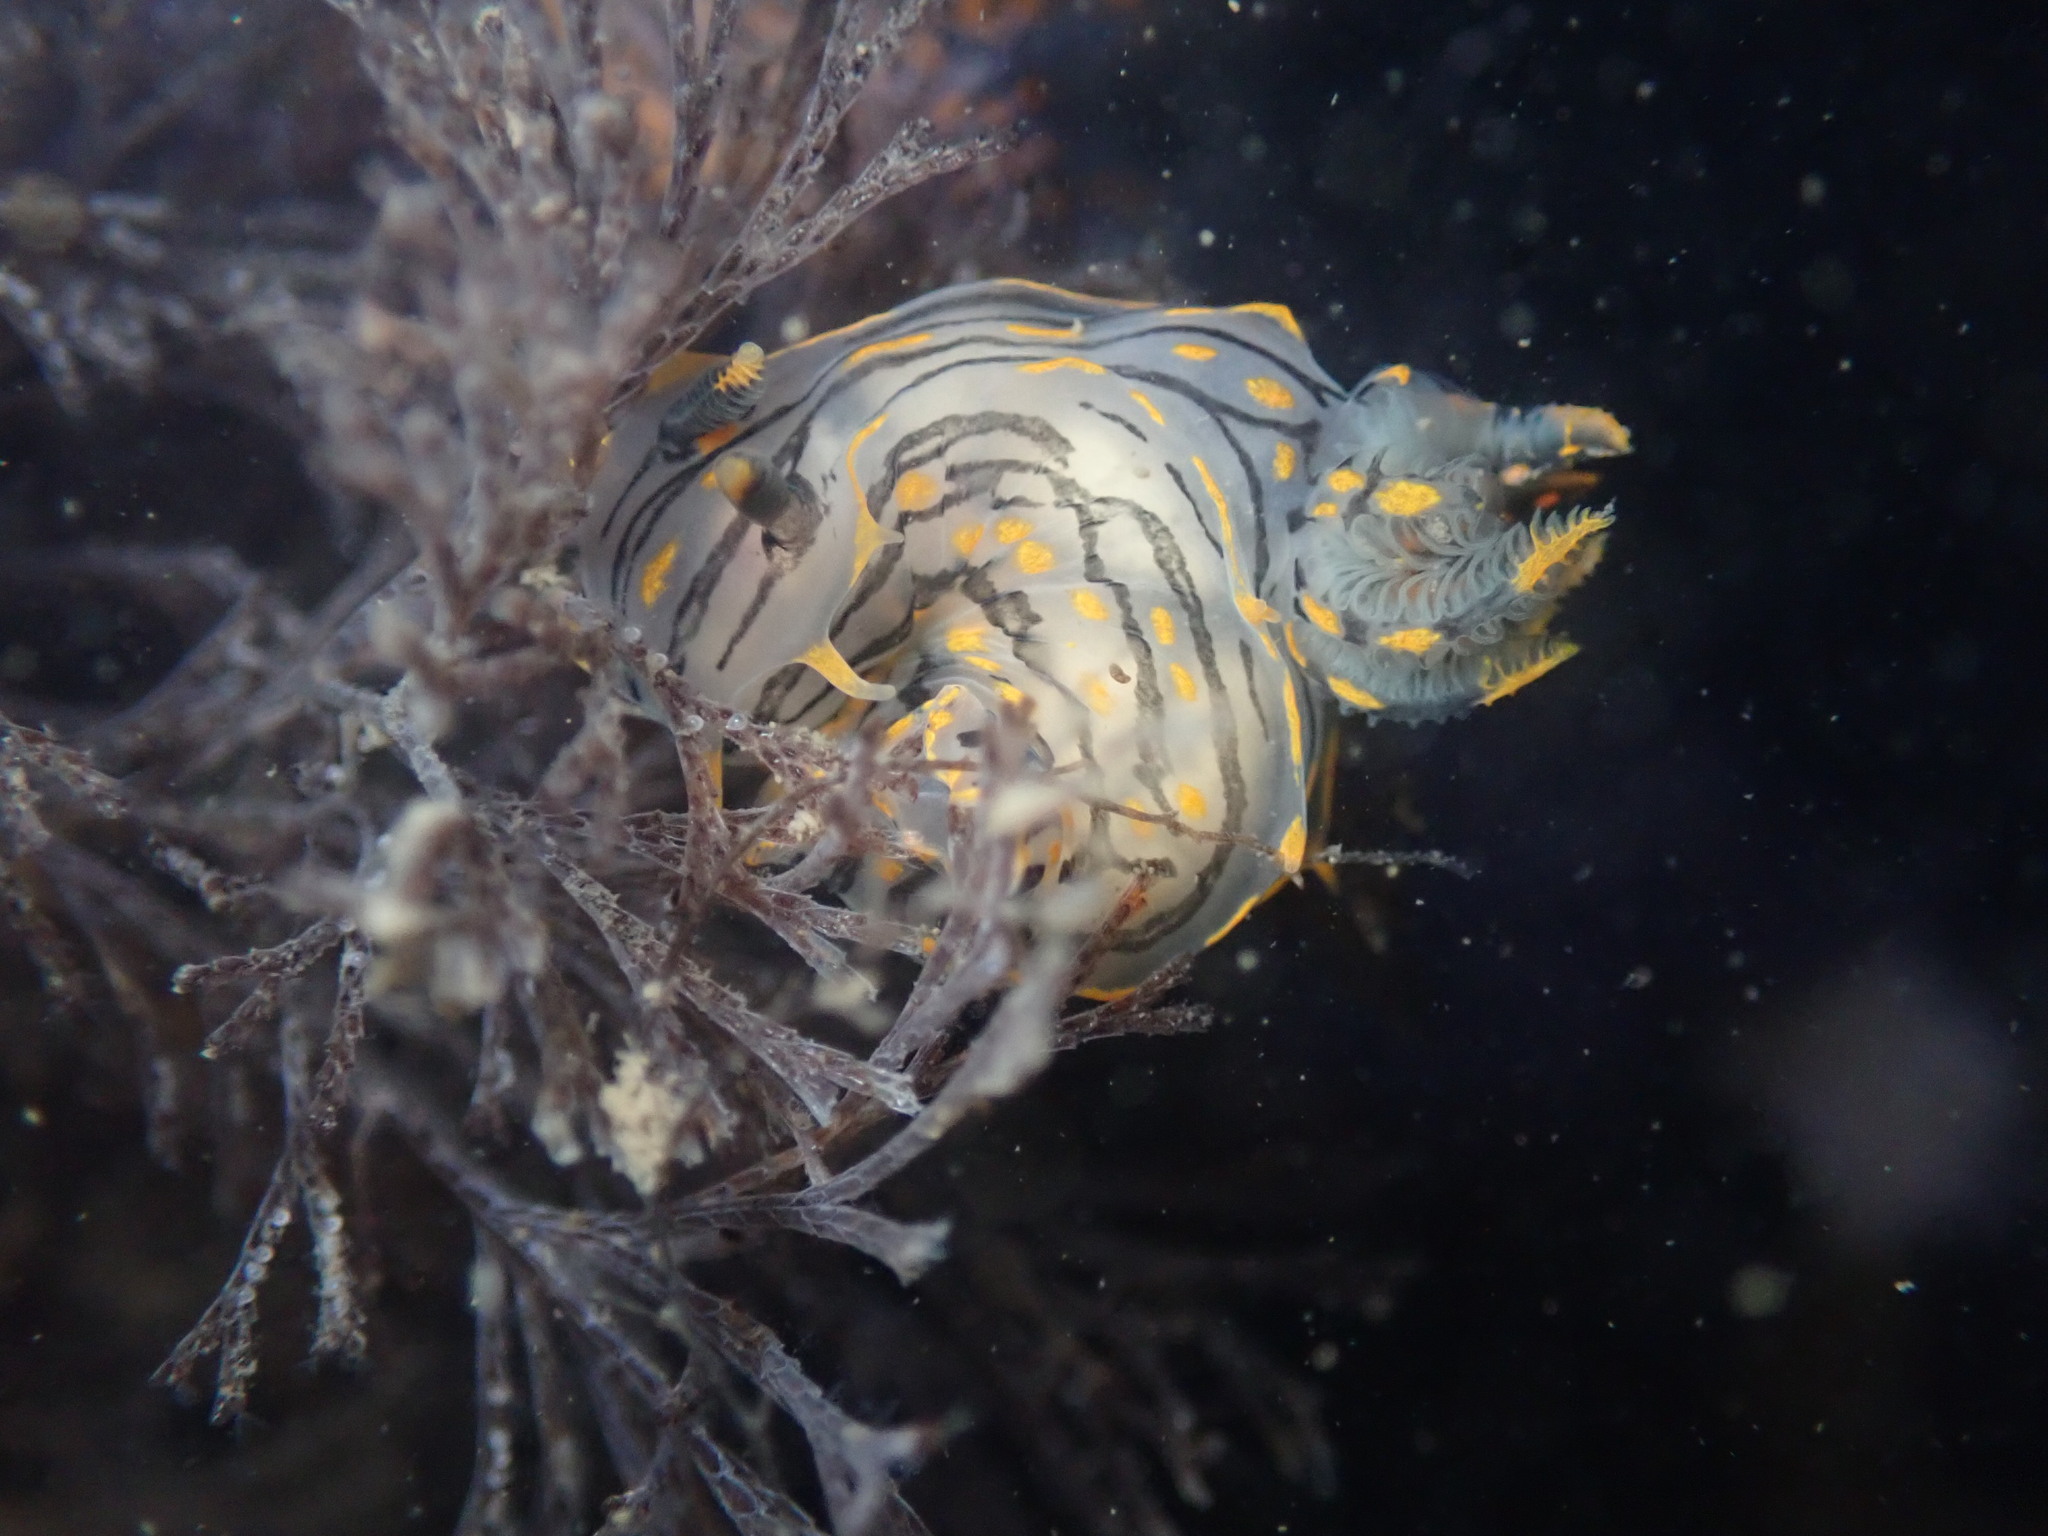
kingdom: Animalia
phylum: Mollusca
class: Gastropoda
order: Nudibranchia
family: Polyceridae
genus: Polycera
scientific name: Polycera atra
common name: Orange-spike polycera
